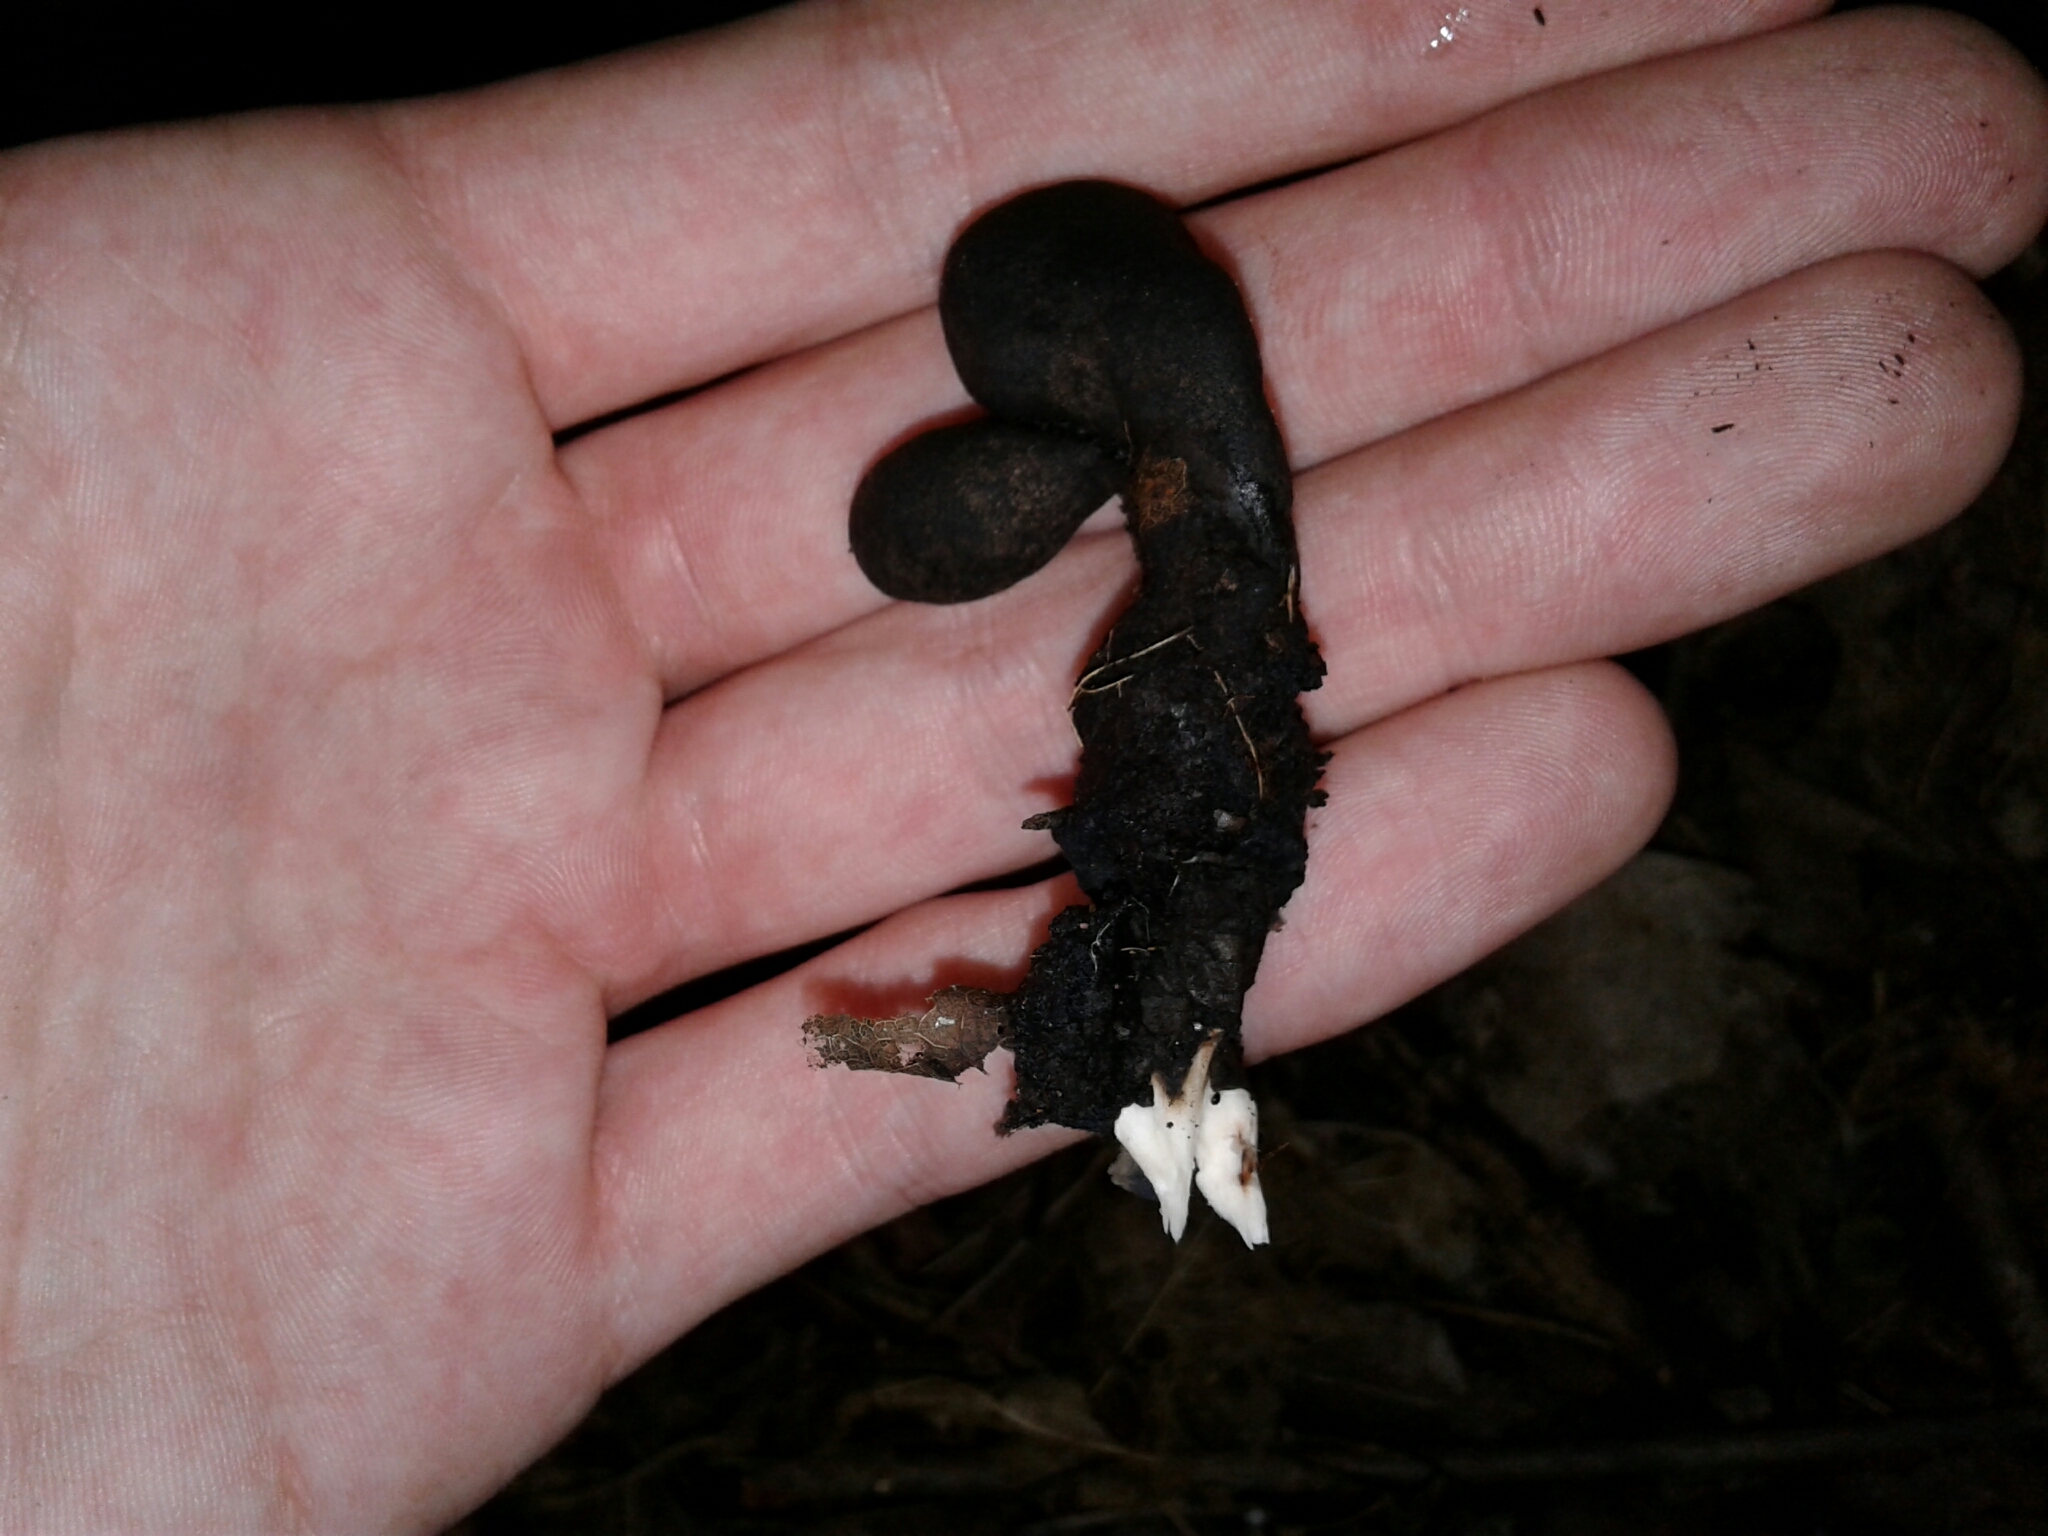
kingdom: Fungi
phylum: Ascomycota
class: Sordariomycetes
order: Xylariales
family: Xylariaceae
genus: Xylaria
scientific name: Xylaria polymorpha
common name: Dead man's fingers
